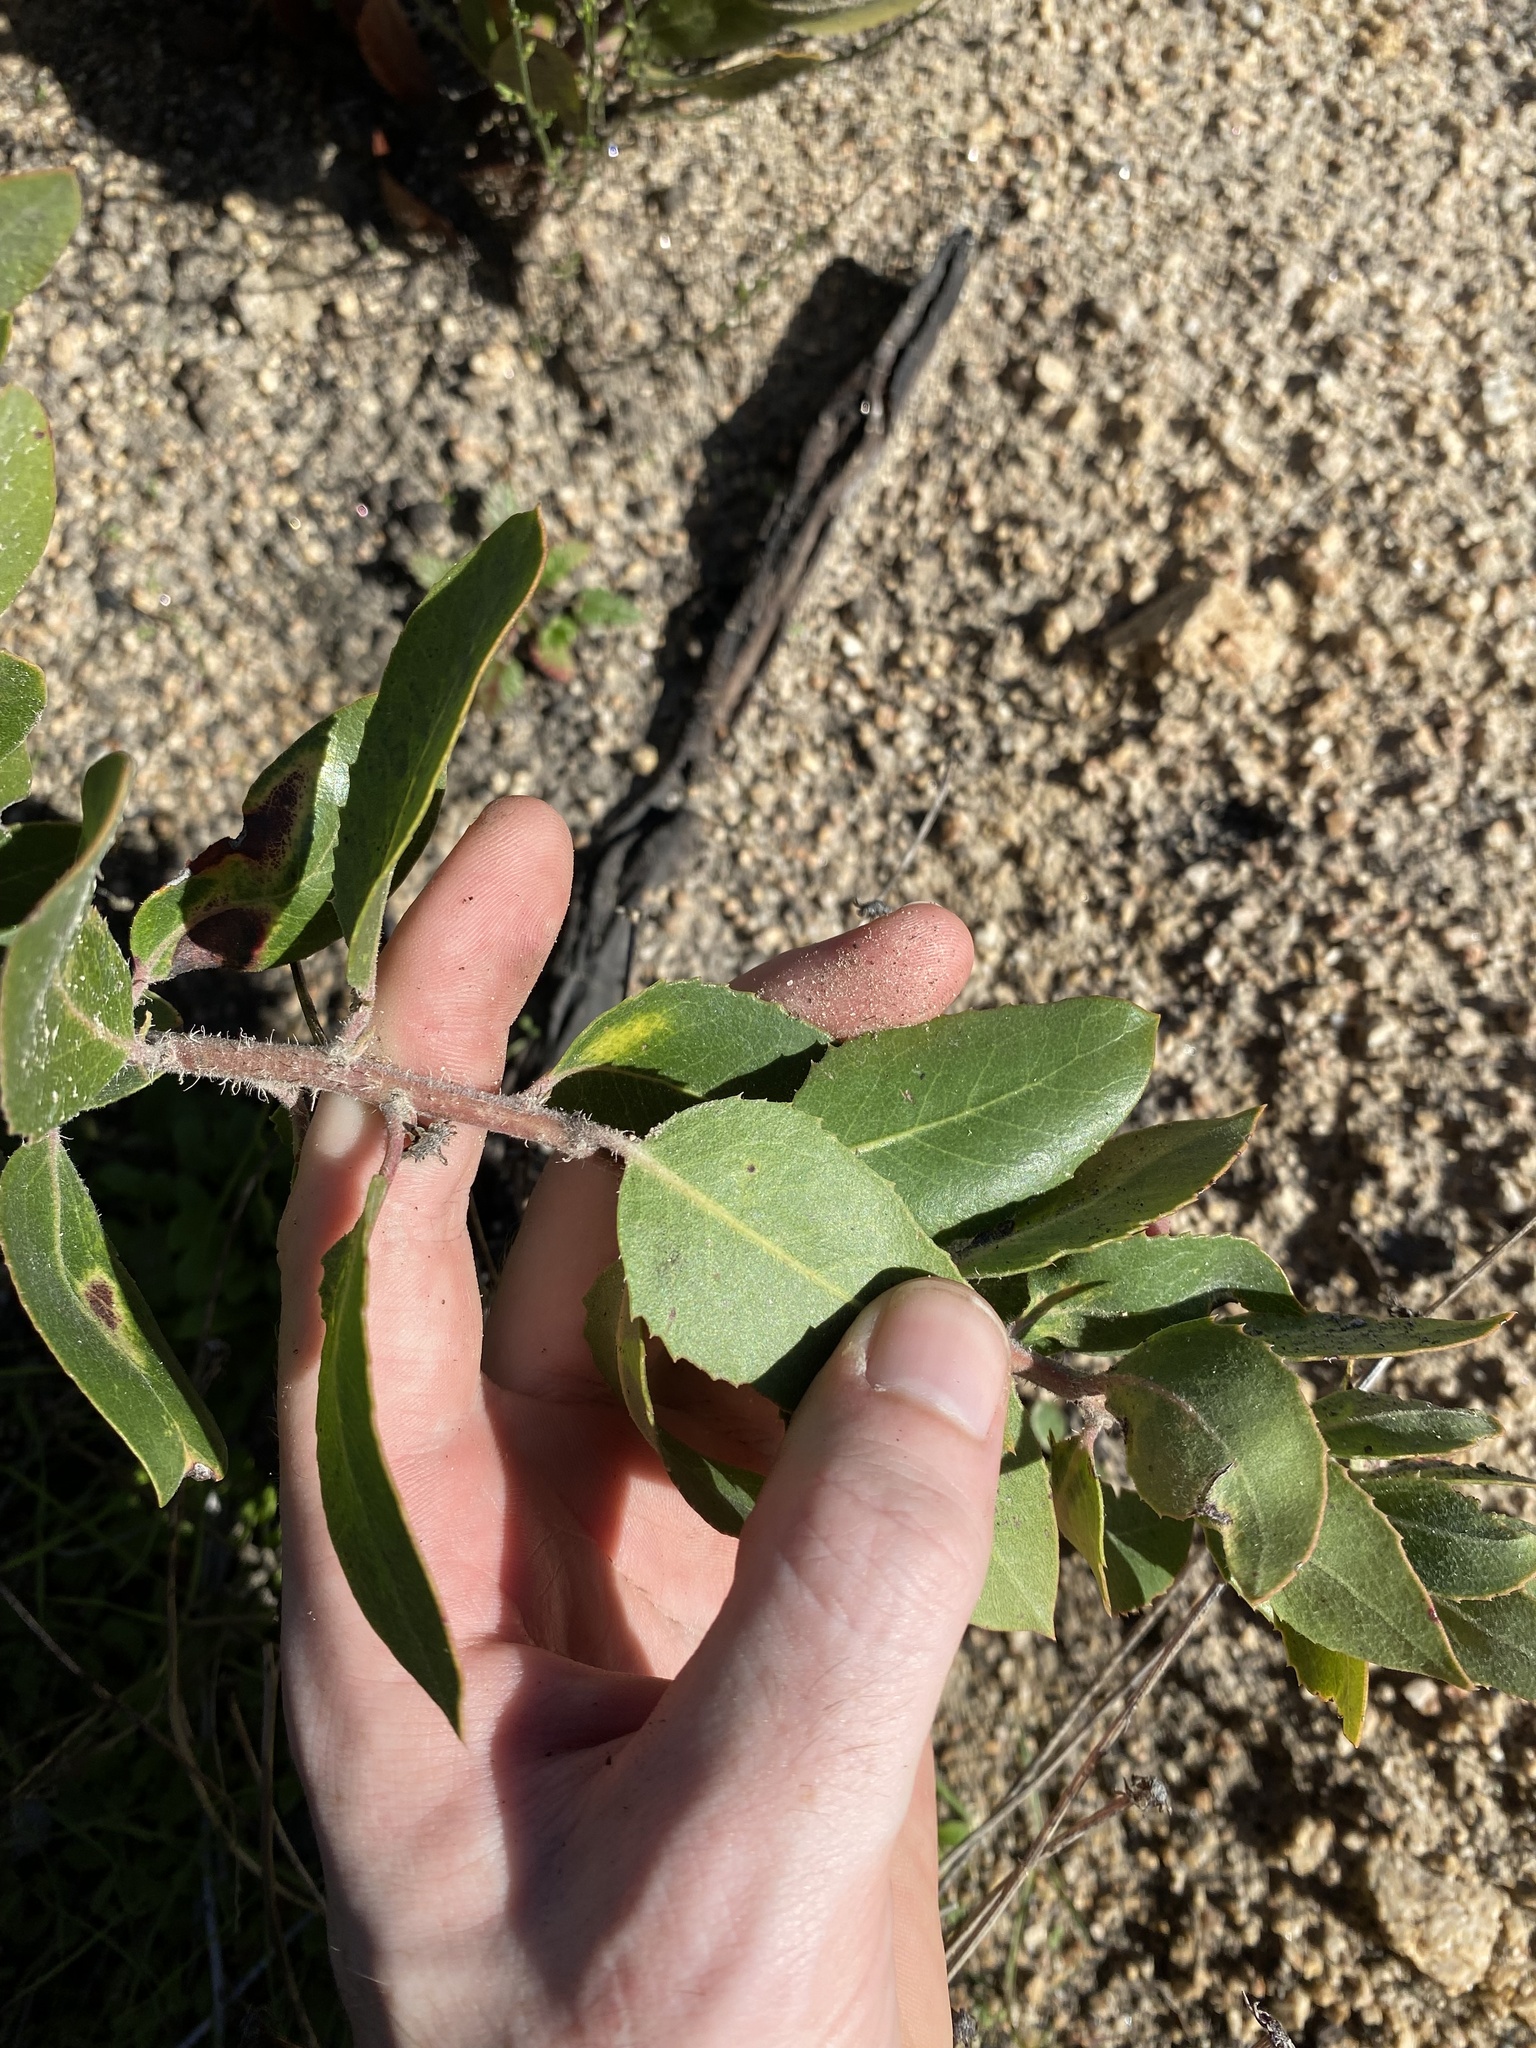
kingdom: Plantae
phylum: Tracheophyta
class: Magnoliopsida
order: Ericales
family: Ericaceae
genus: Arctostaphylos
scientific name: Arctostaphylos crustacea
